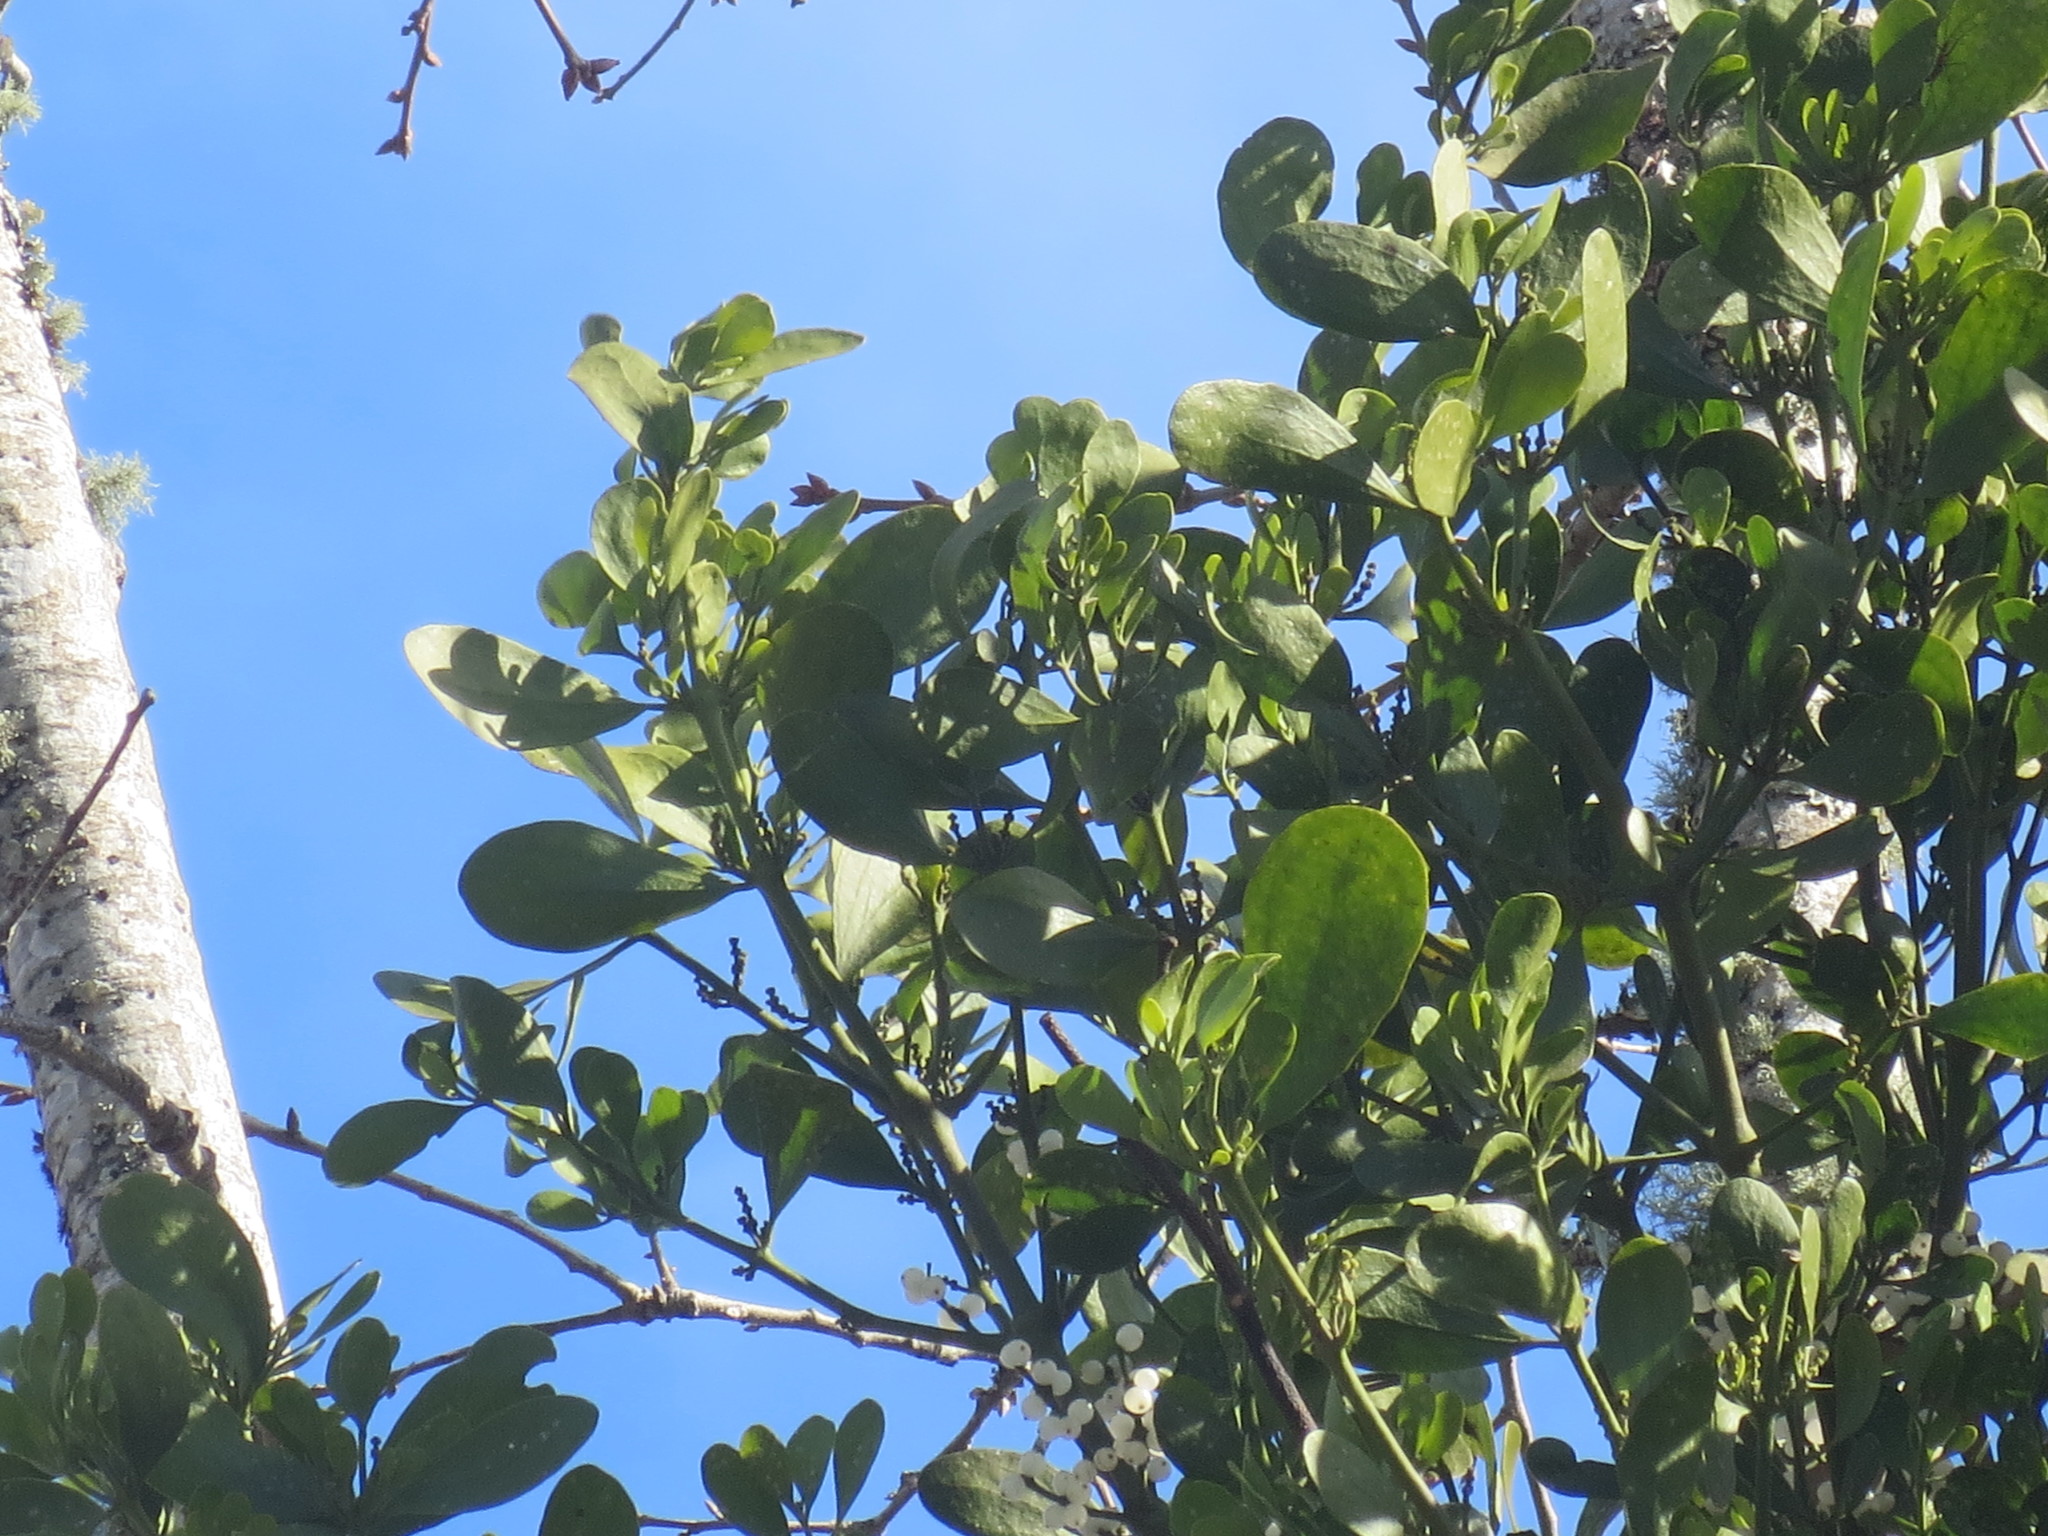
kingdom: Plantae
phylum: Tracheophyta
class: Magnoliopsida
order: Santalales
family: Viscaceae
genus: Phoradendron
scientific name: Phoradendron leucarpum
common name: Pacific mistletoe
